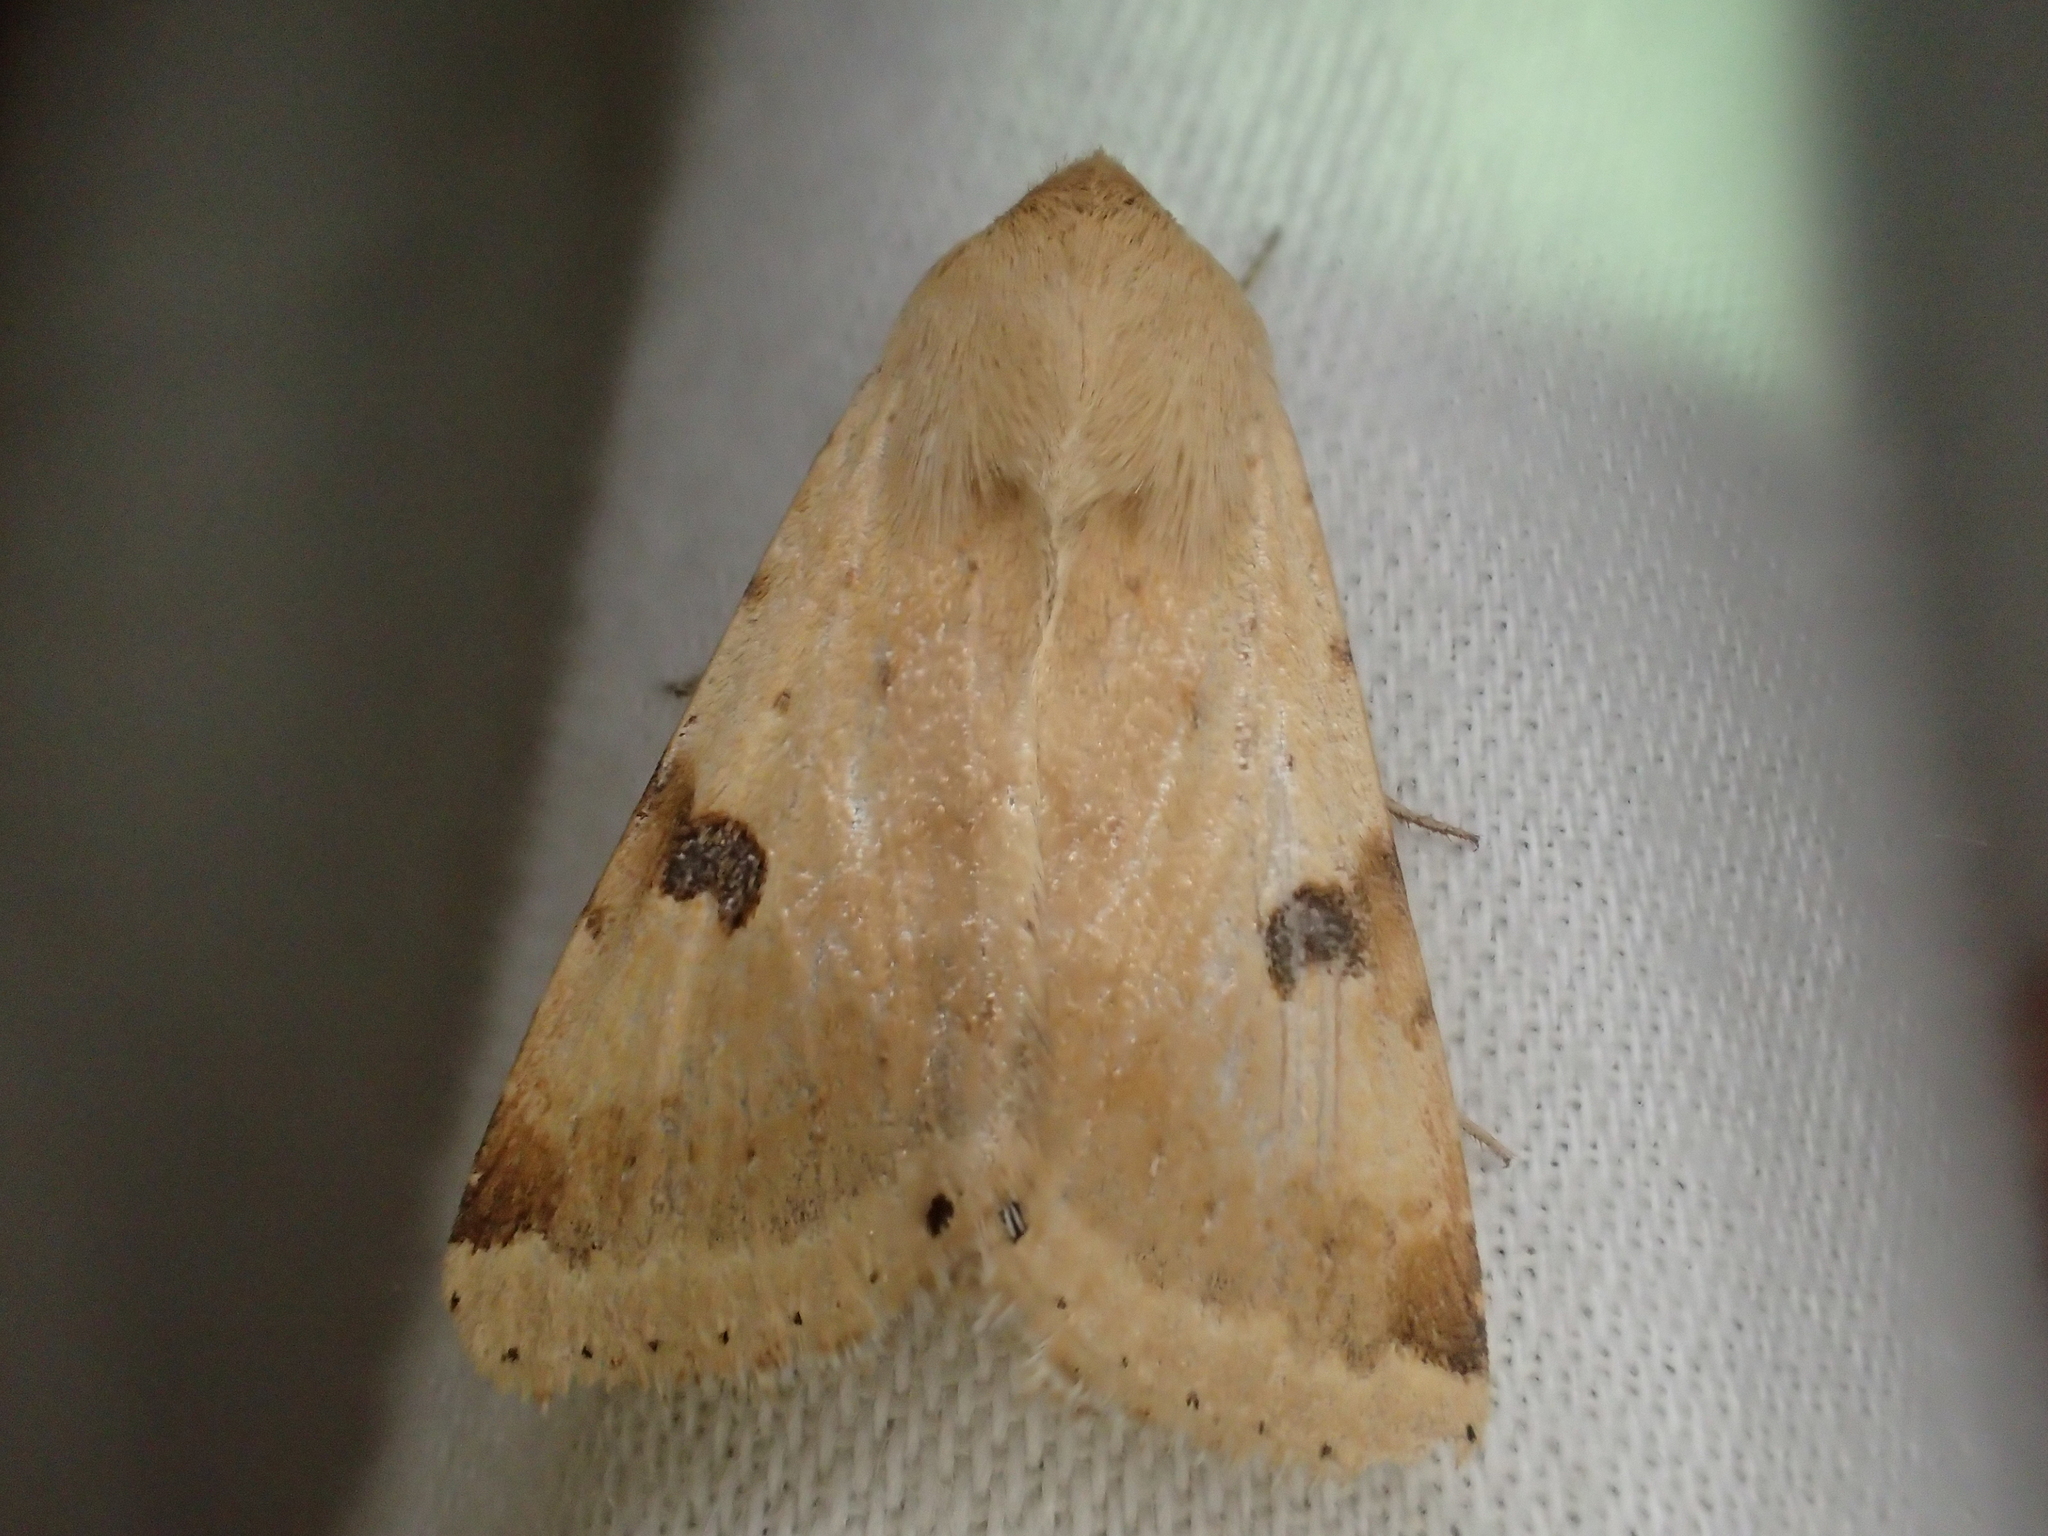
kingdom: Animalia
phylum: Arthropoda
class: Insecta
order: Lepidoptera
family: Noctuidae
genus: Heliothis
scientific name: Heliothis peltigera
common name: Bordered straw
